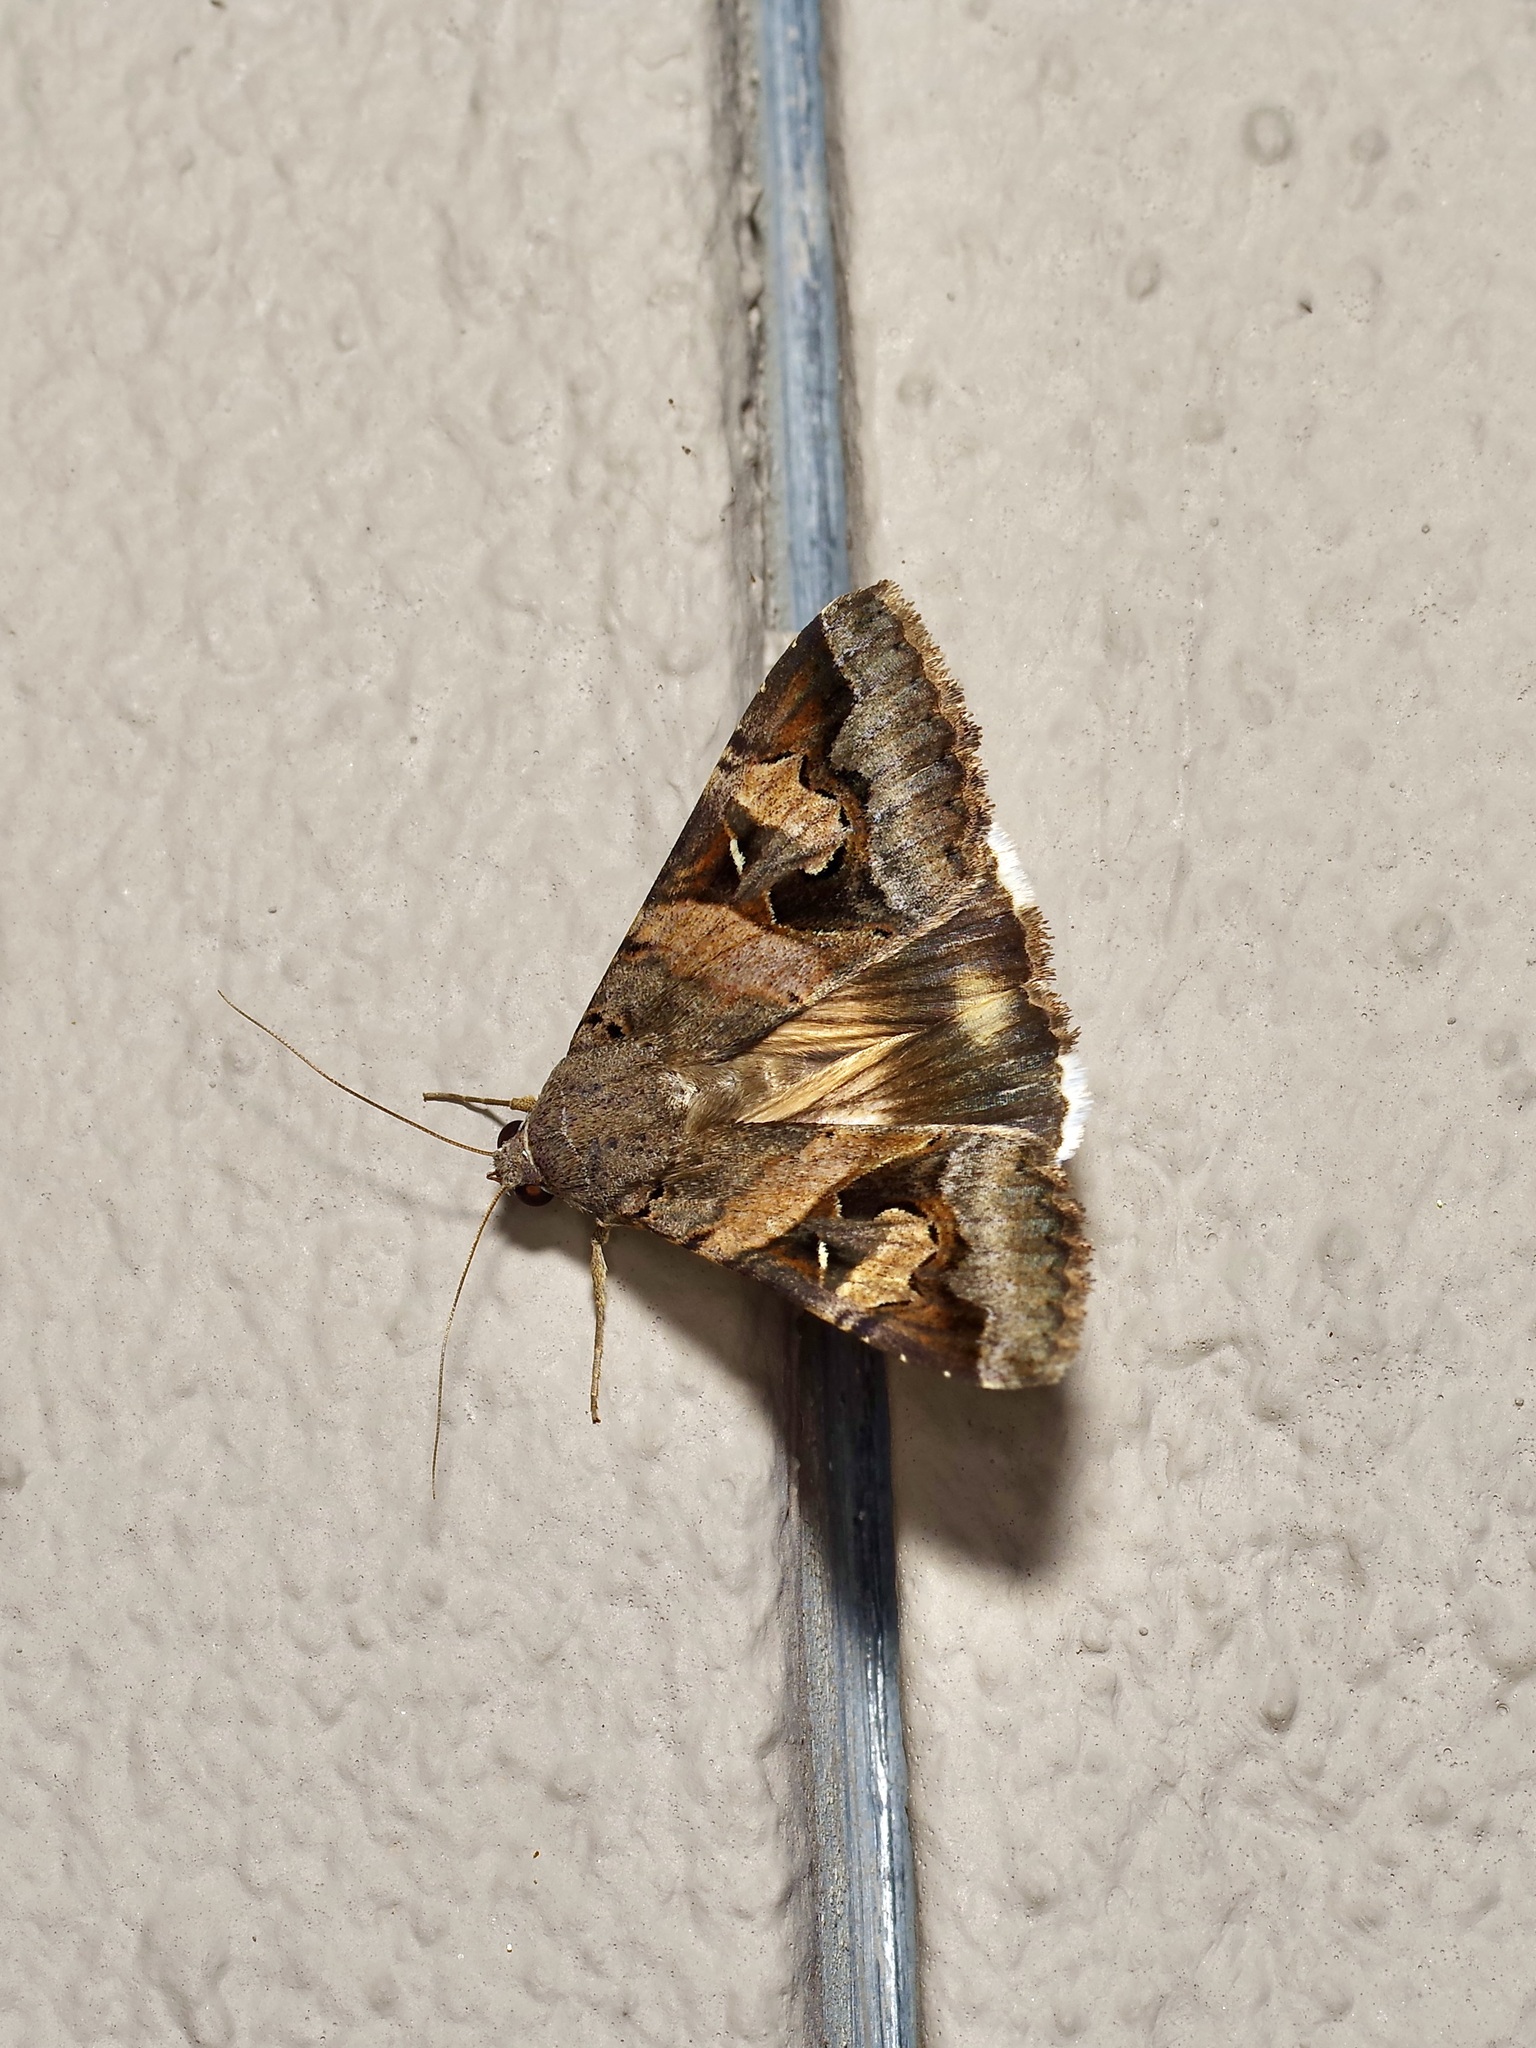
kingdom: Animalia
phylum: Arthropoda
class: Insecta
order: Lepidoptera
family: Erebidae
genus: Melipotis
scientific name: Melipotis indomita
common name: Moth
